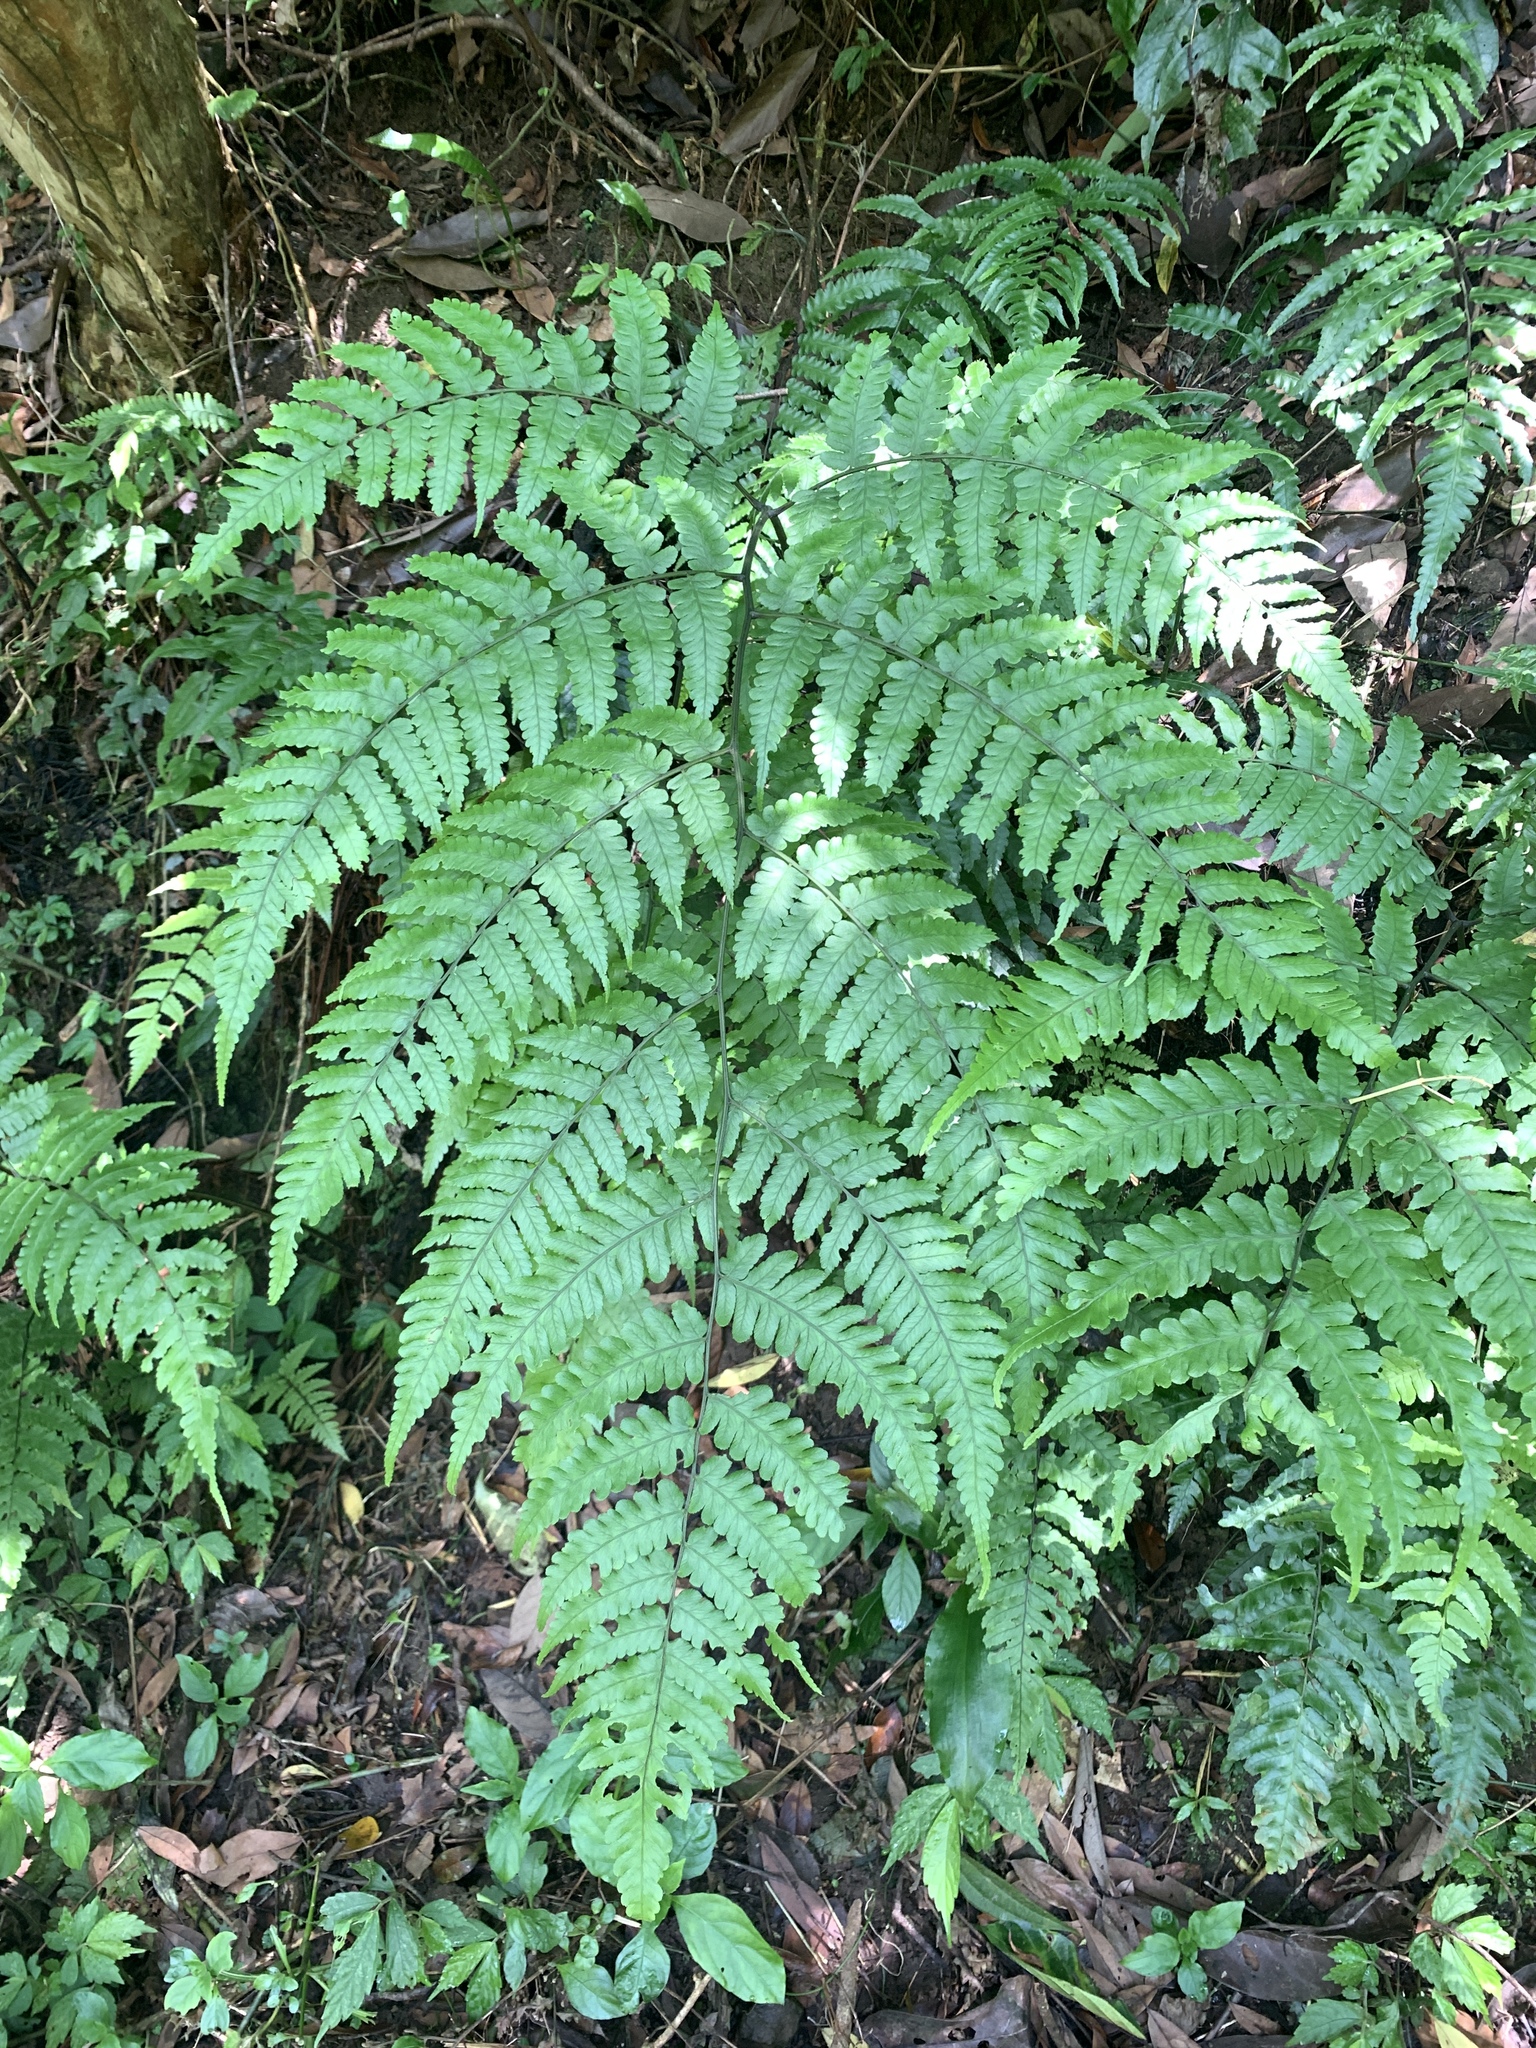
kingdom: Plantae
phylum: Tracheophyta
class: Polypodiopsida
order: Polypodiales
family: Athyriaceae
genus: Diplazium
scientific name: Diplazium doederleinii
